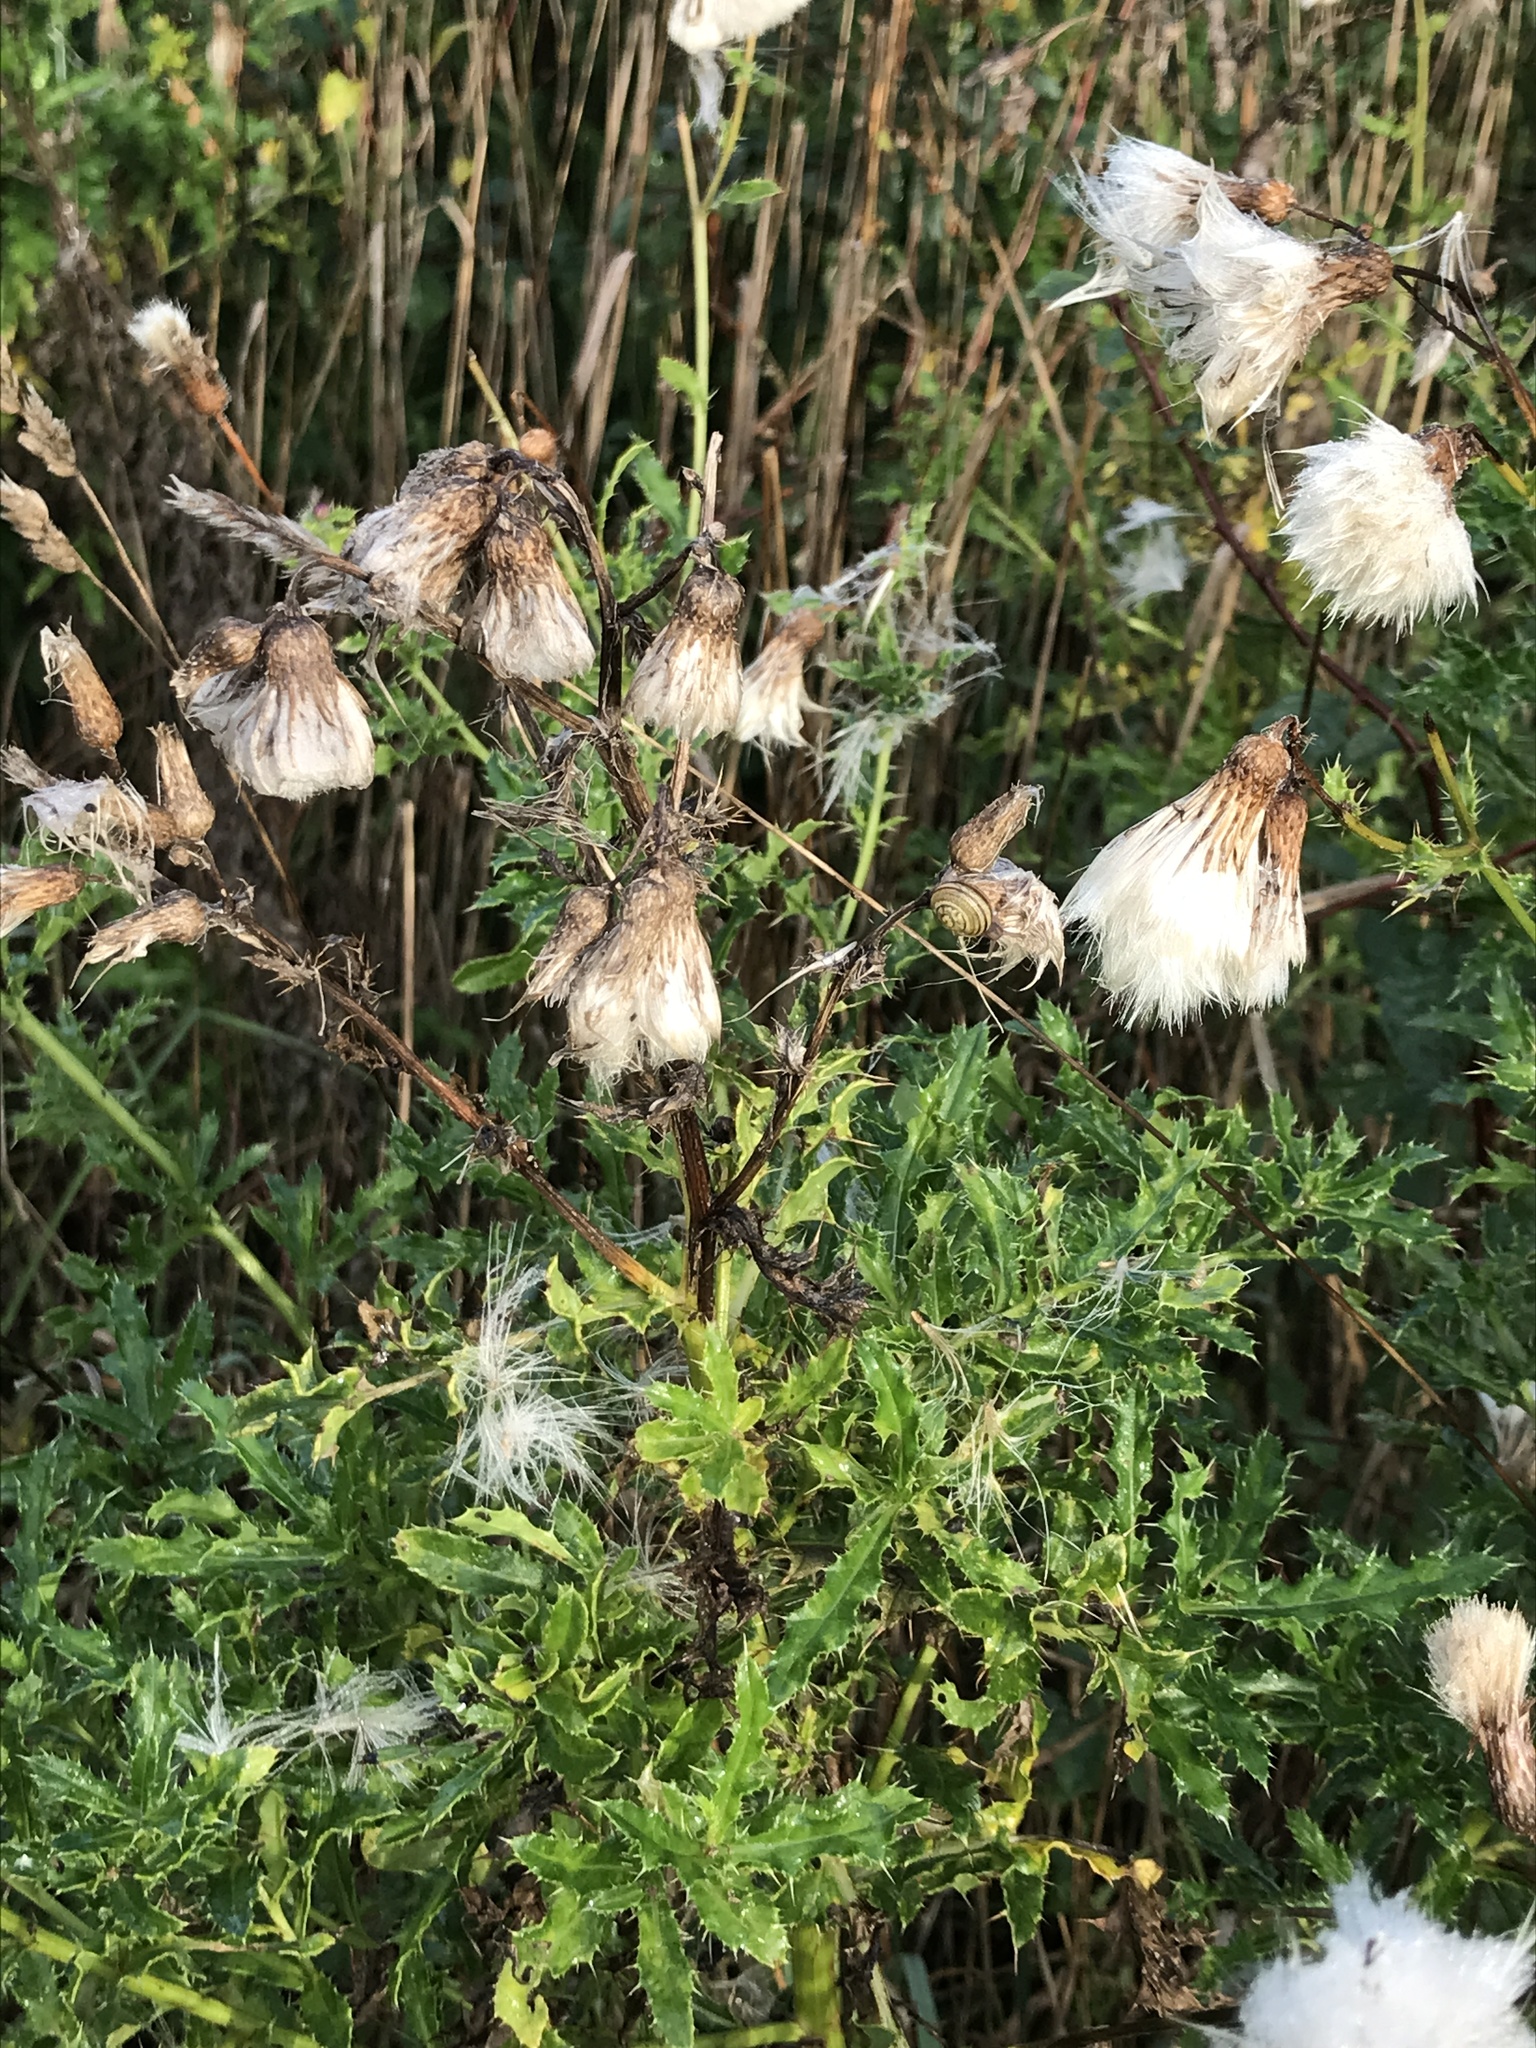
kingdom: Plantae
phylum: Tracheophyta
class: Magnoliopsida
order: Asterales
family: Asteraceae
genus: Cirsium
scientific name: Cirsium arvense
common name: Creeping thistle
